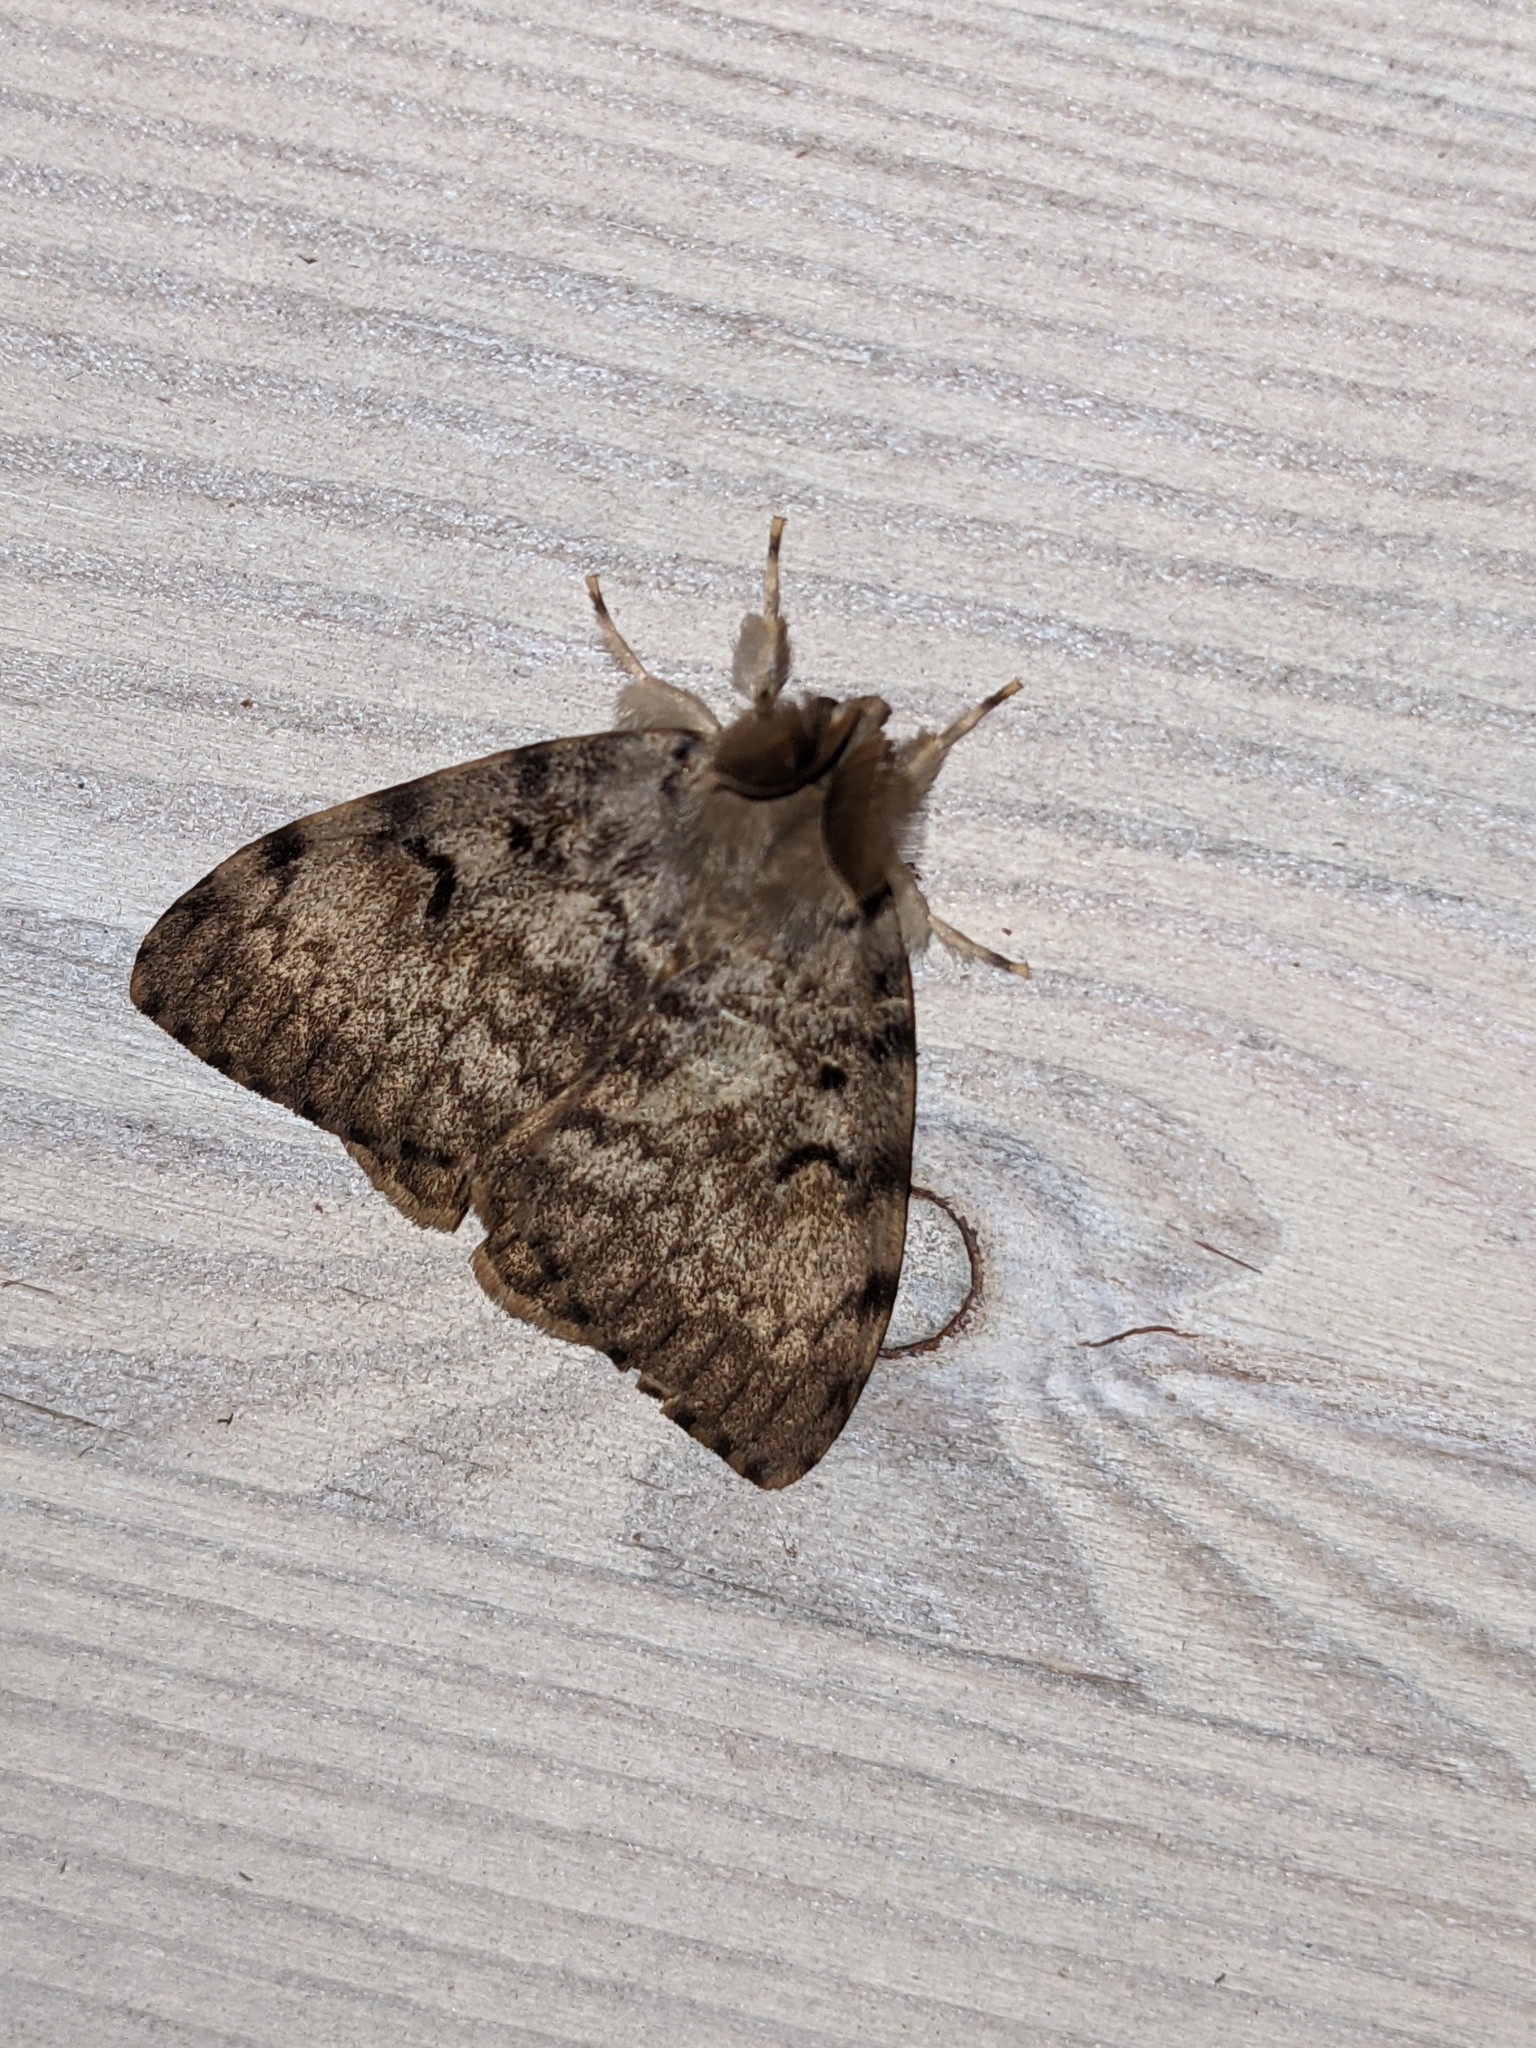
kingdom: Animalia
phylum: Arthropoda
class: Insecta
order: Lepidoptera
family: Erebidae
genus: Lymantria
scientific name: Lymantria dispar
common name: Gypsy moth
